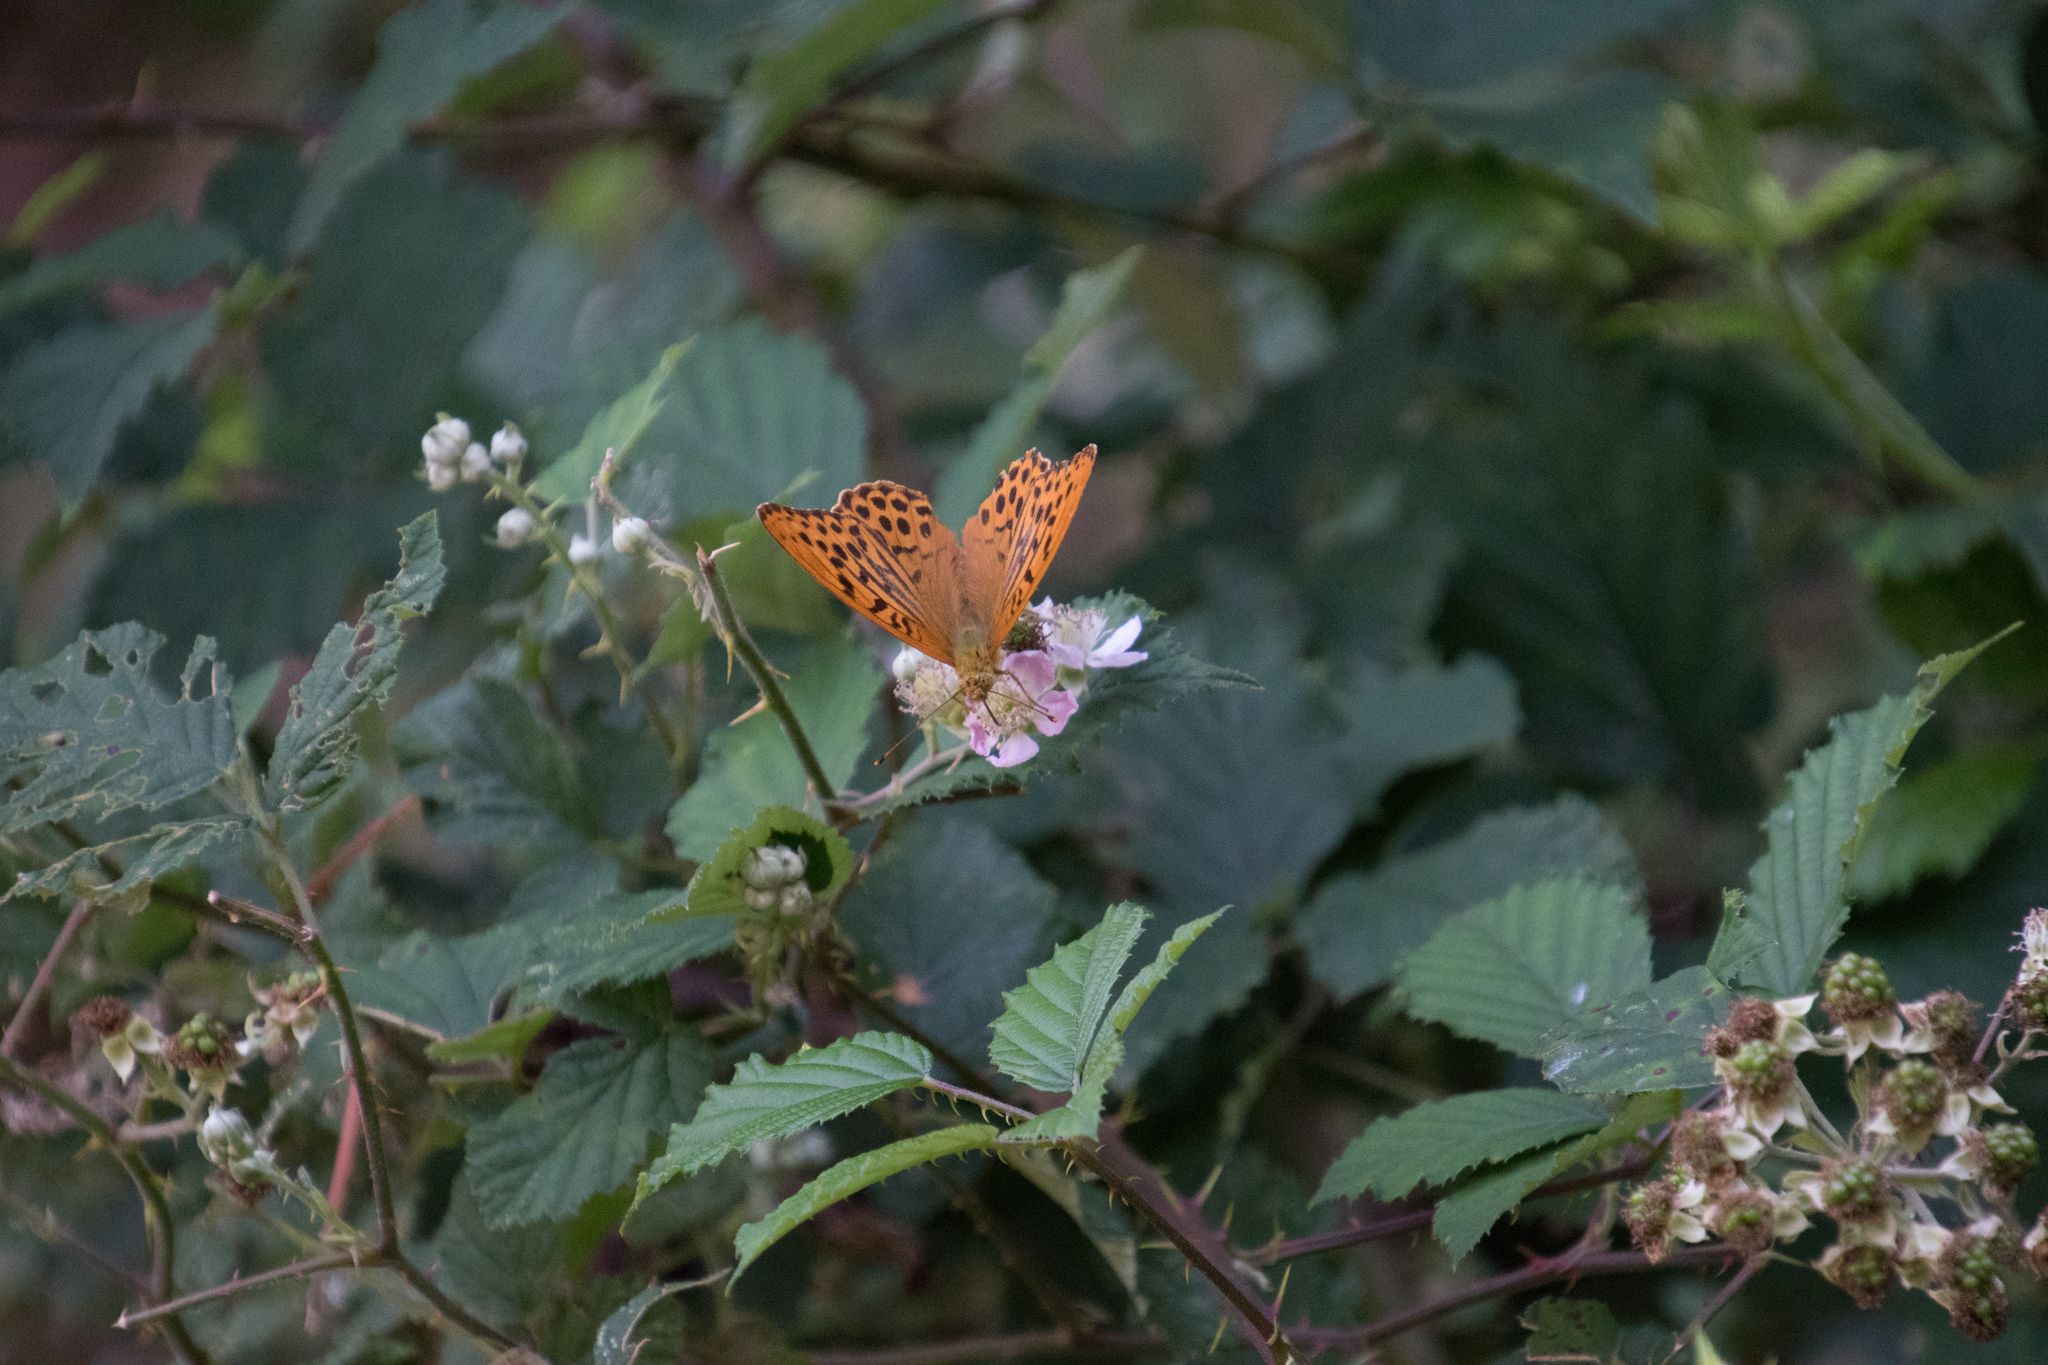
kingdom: Animalia
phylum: Arthropoda
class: Insecta
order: Lepidoptera
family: Nymphalidae
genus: Argynnis
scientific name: Argynnis paphia
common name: Silver-washed fritillary
